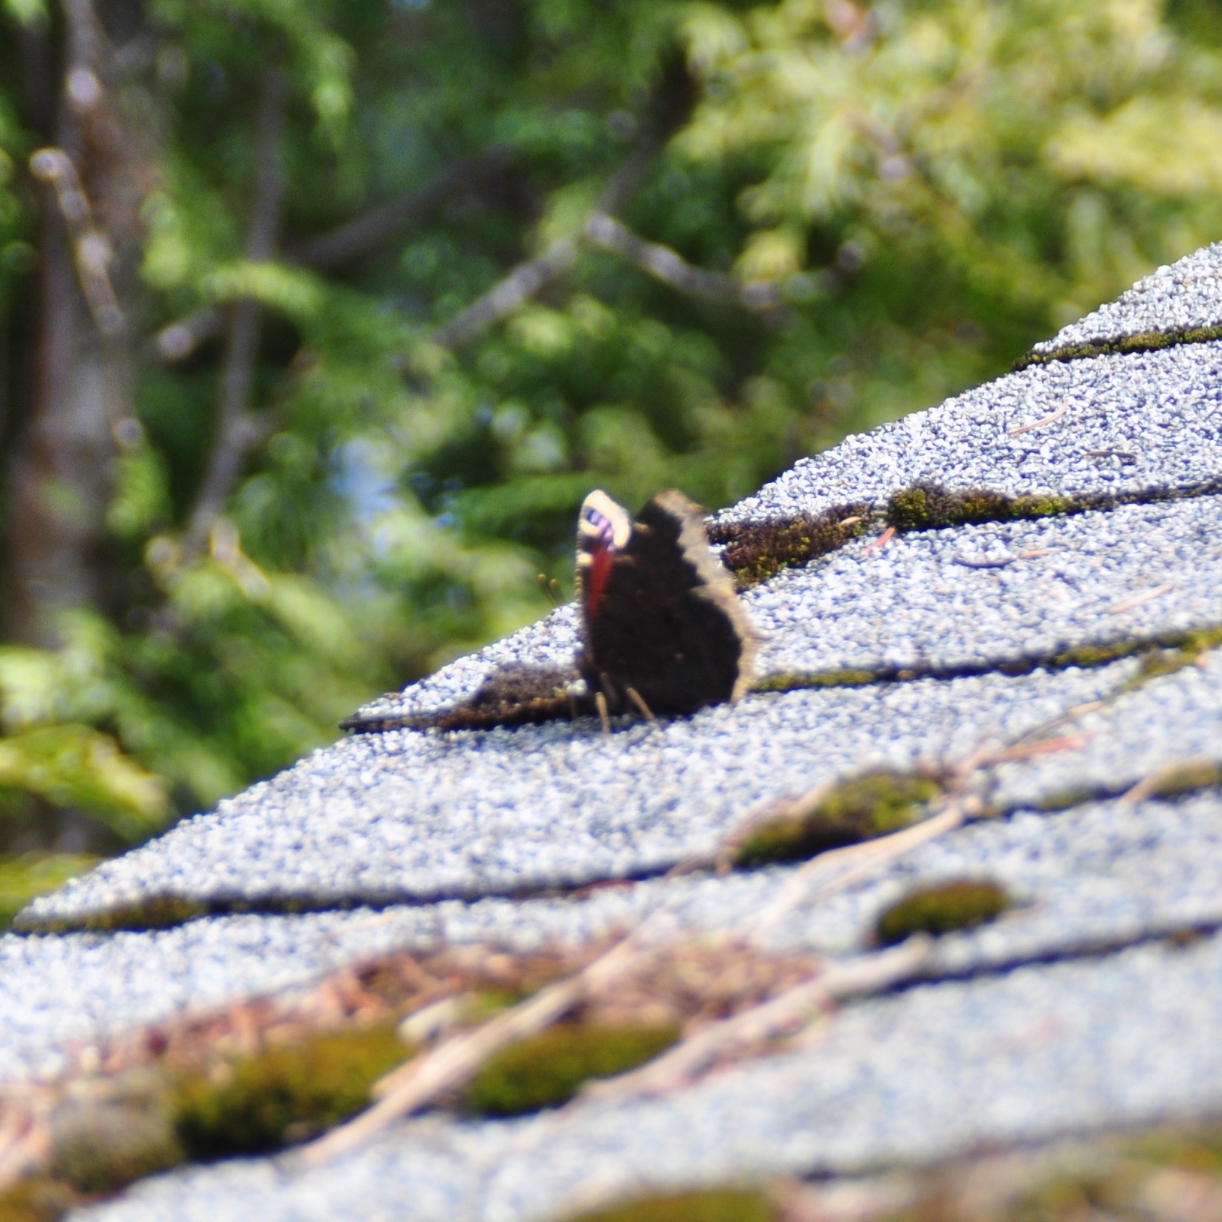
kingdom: Animalia
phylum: Arthropoda
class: Insecta
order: Lepidoptera
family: Nymphalidae
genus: Nymphalis
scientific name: Nymphalis antiopa
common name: Camberwell beauty
